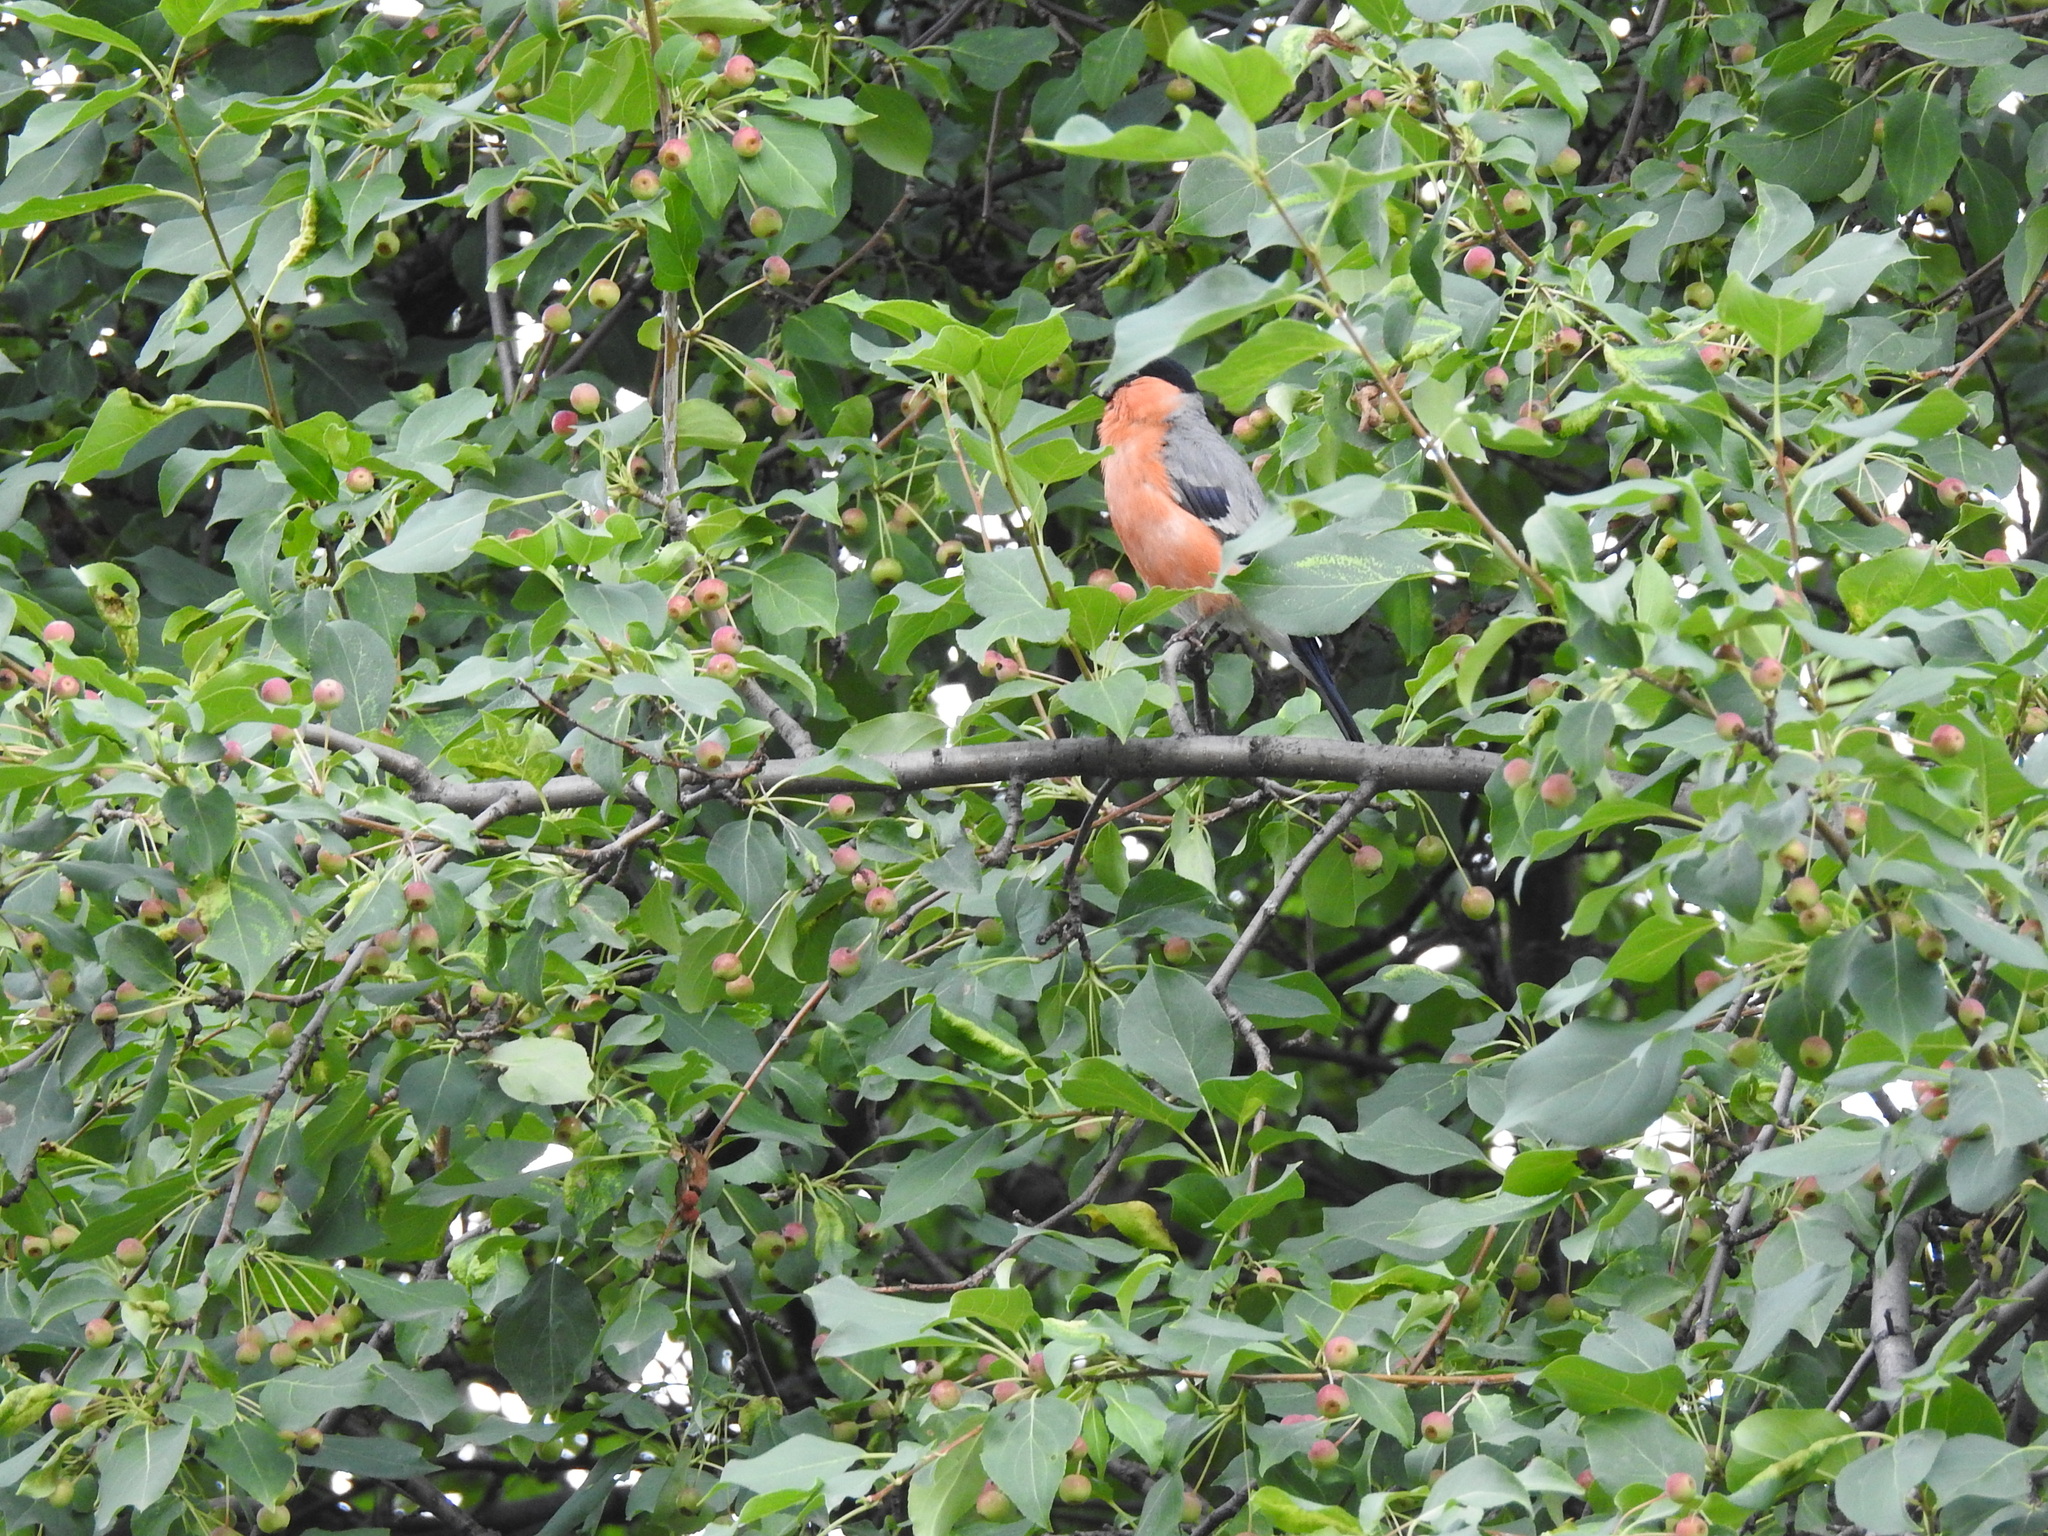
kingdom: Animalia
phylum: Chordata
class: Aves
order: Passeriformes
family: Fringillidae
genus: Pyrrhula
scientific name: Pyrrhula pyrrhula
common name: Eurasian bullfinch
